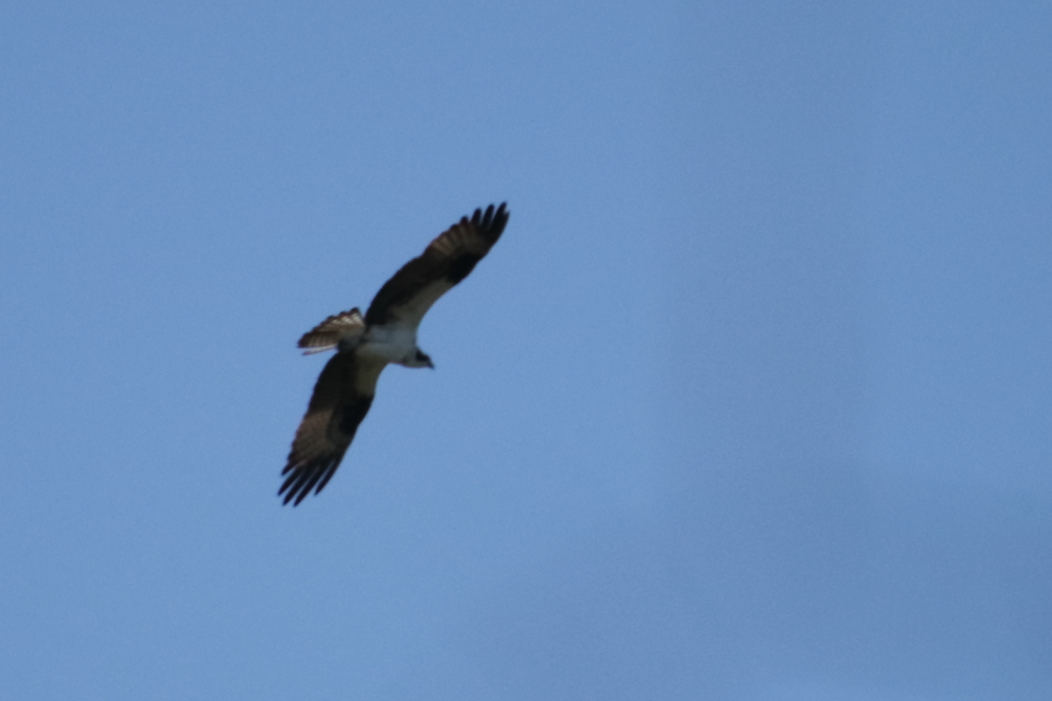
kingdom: Animalia
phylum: Chordata
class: Aves
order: Accipitriformes
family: Pandionidae
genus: Pandion
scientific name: Pandion haliaetus
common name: Osprey
